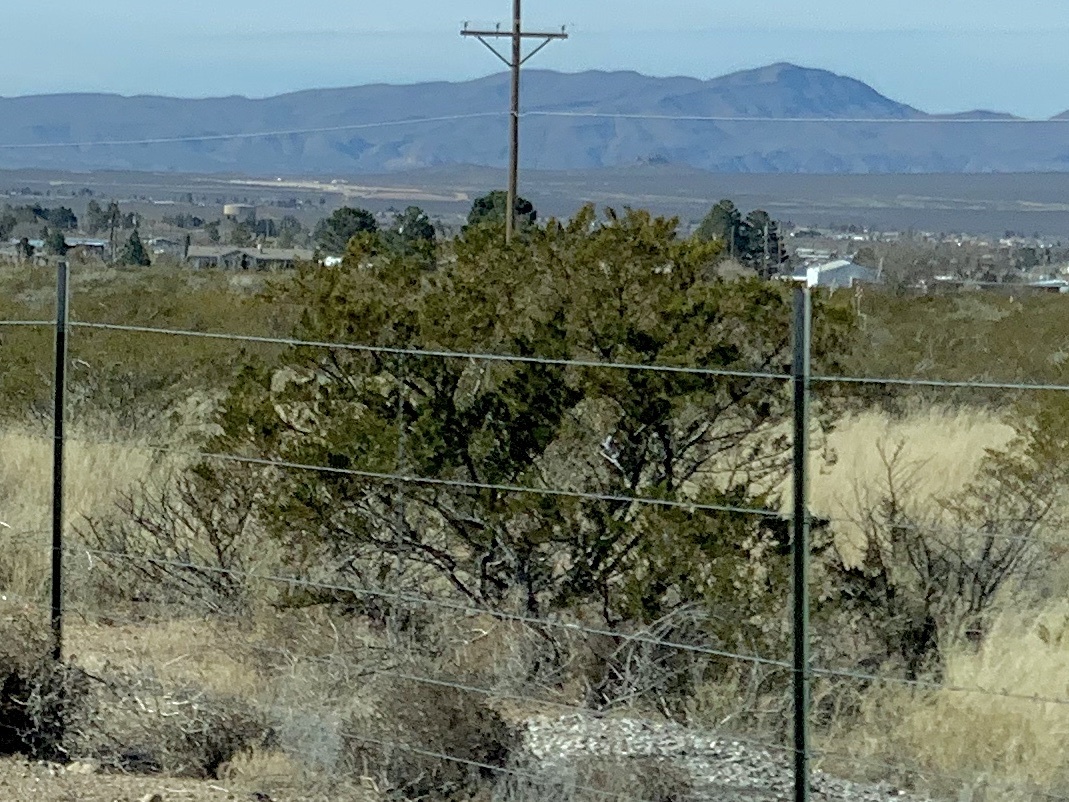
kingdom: Plantae
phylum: Tracheophyta
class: Magnoliopsida
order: Zygophyllales
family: Zygophyllaceae
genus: Larrea
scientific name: Larrea tridentata
